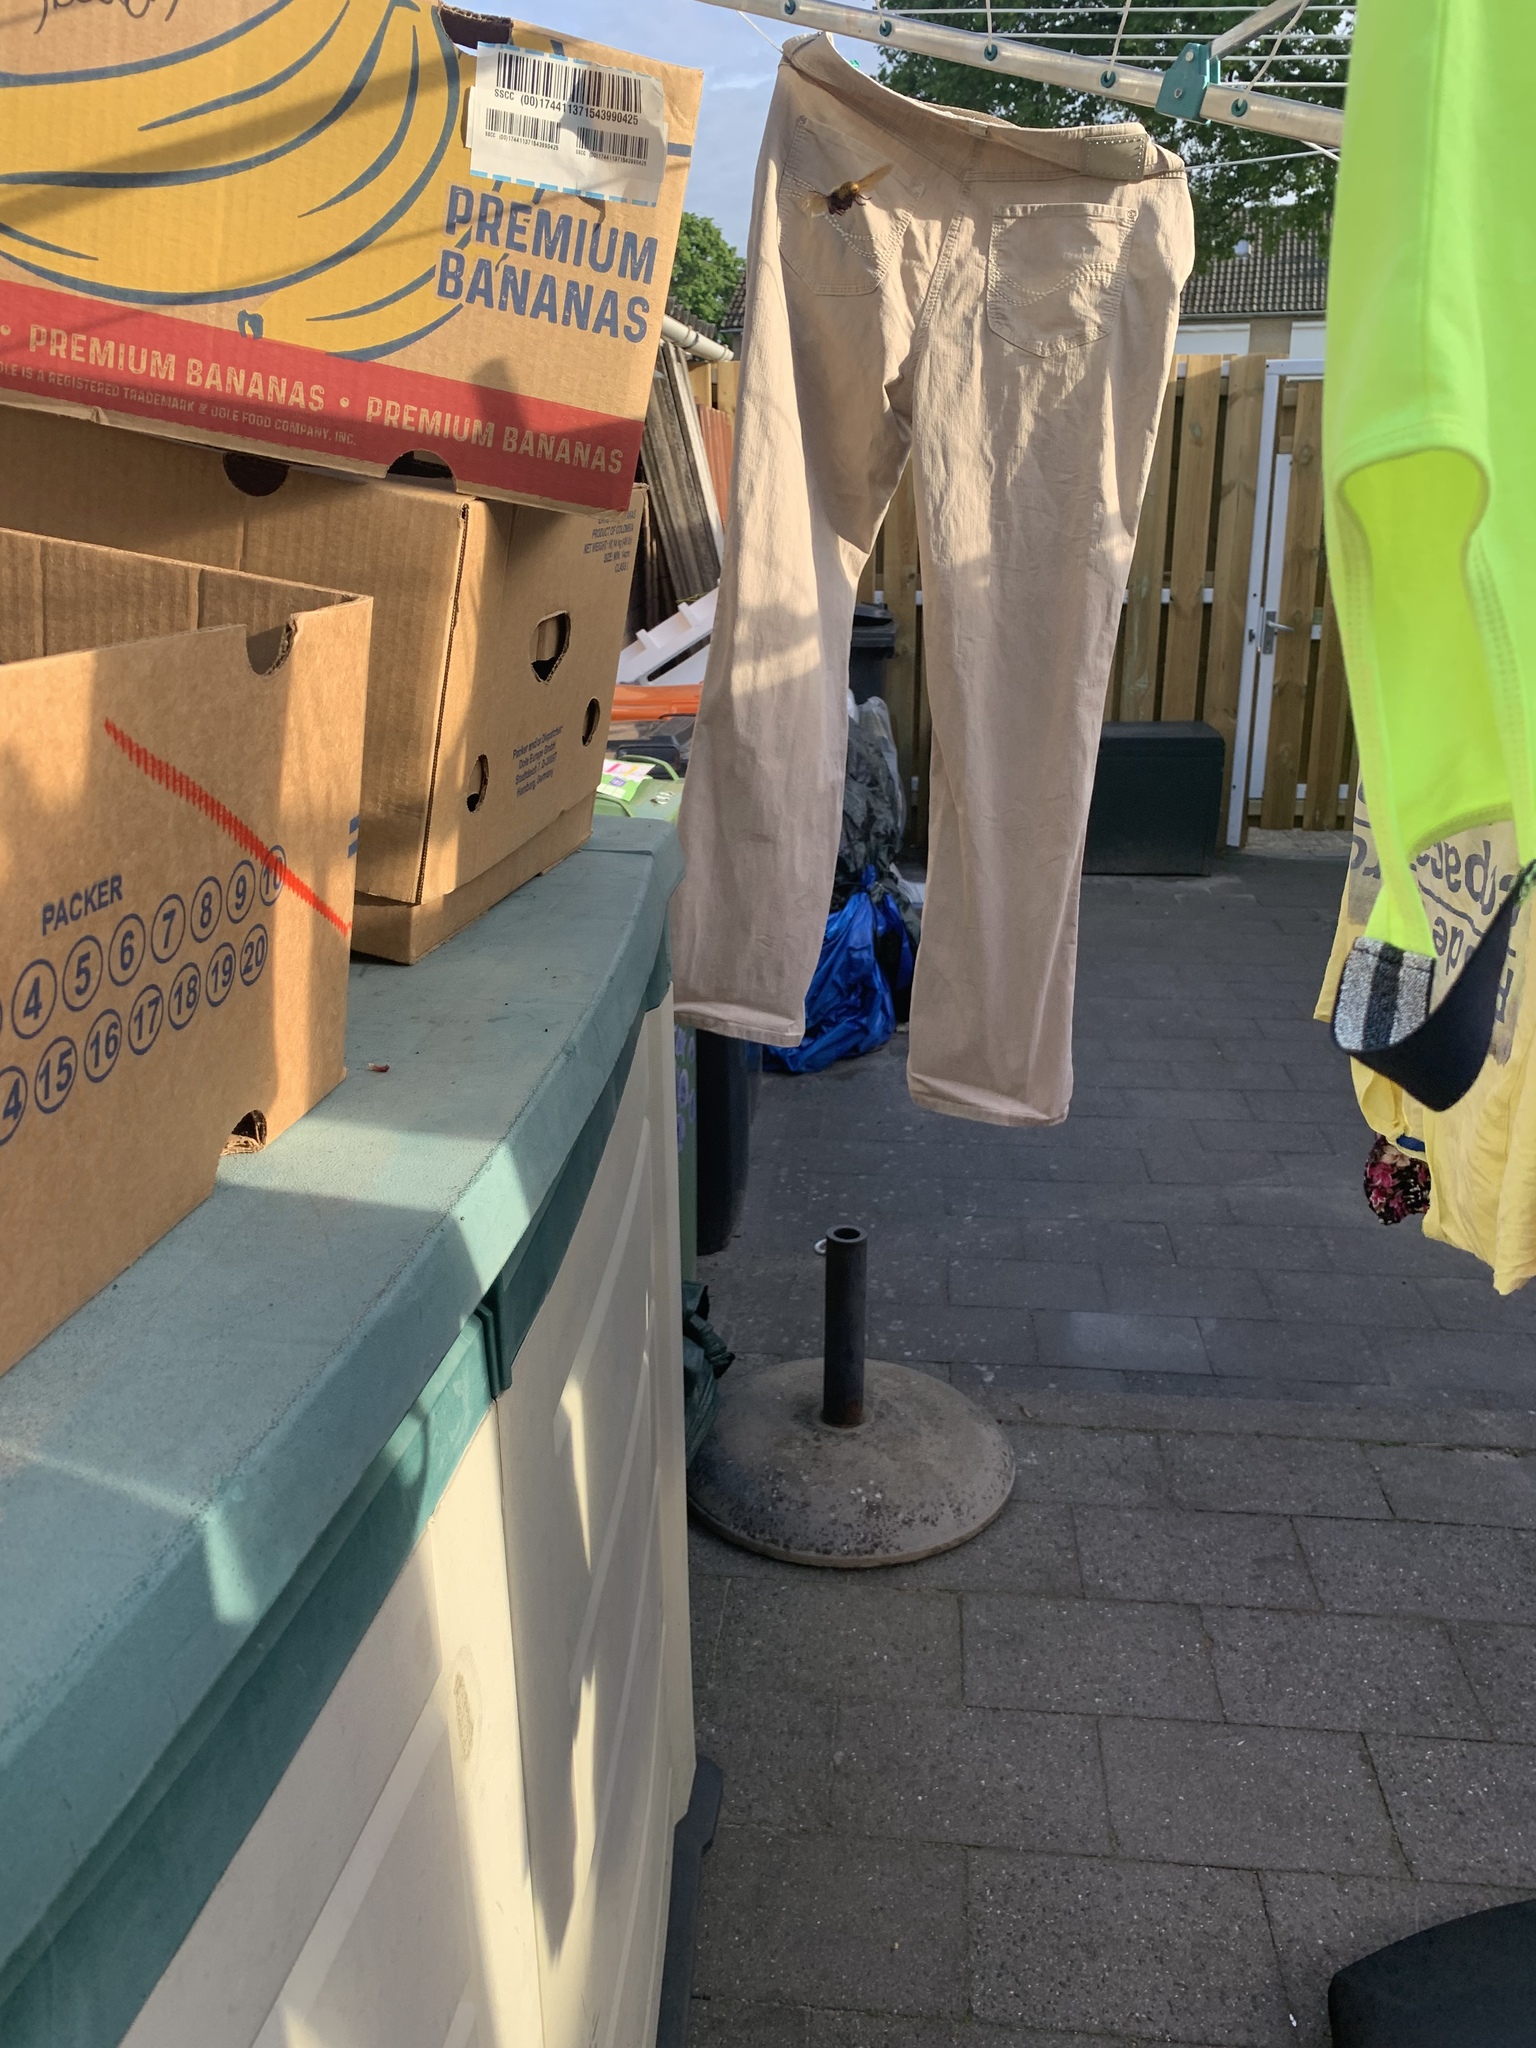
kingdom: Animalia
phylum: Arthropoda
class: Insecta
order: Hymenoptera
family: Vespidae
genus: Vespa
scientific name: Vespa crabro
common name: Hornet
